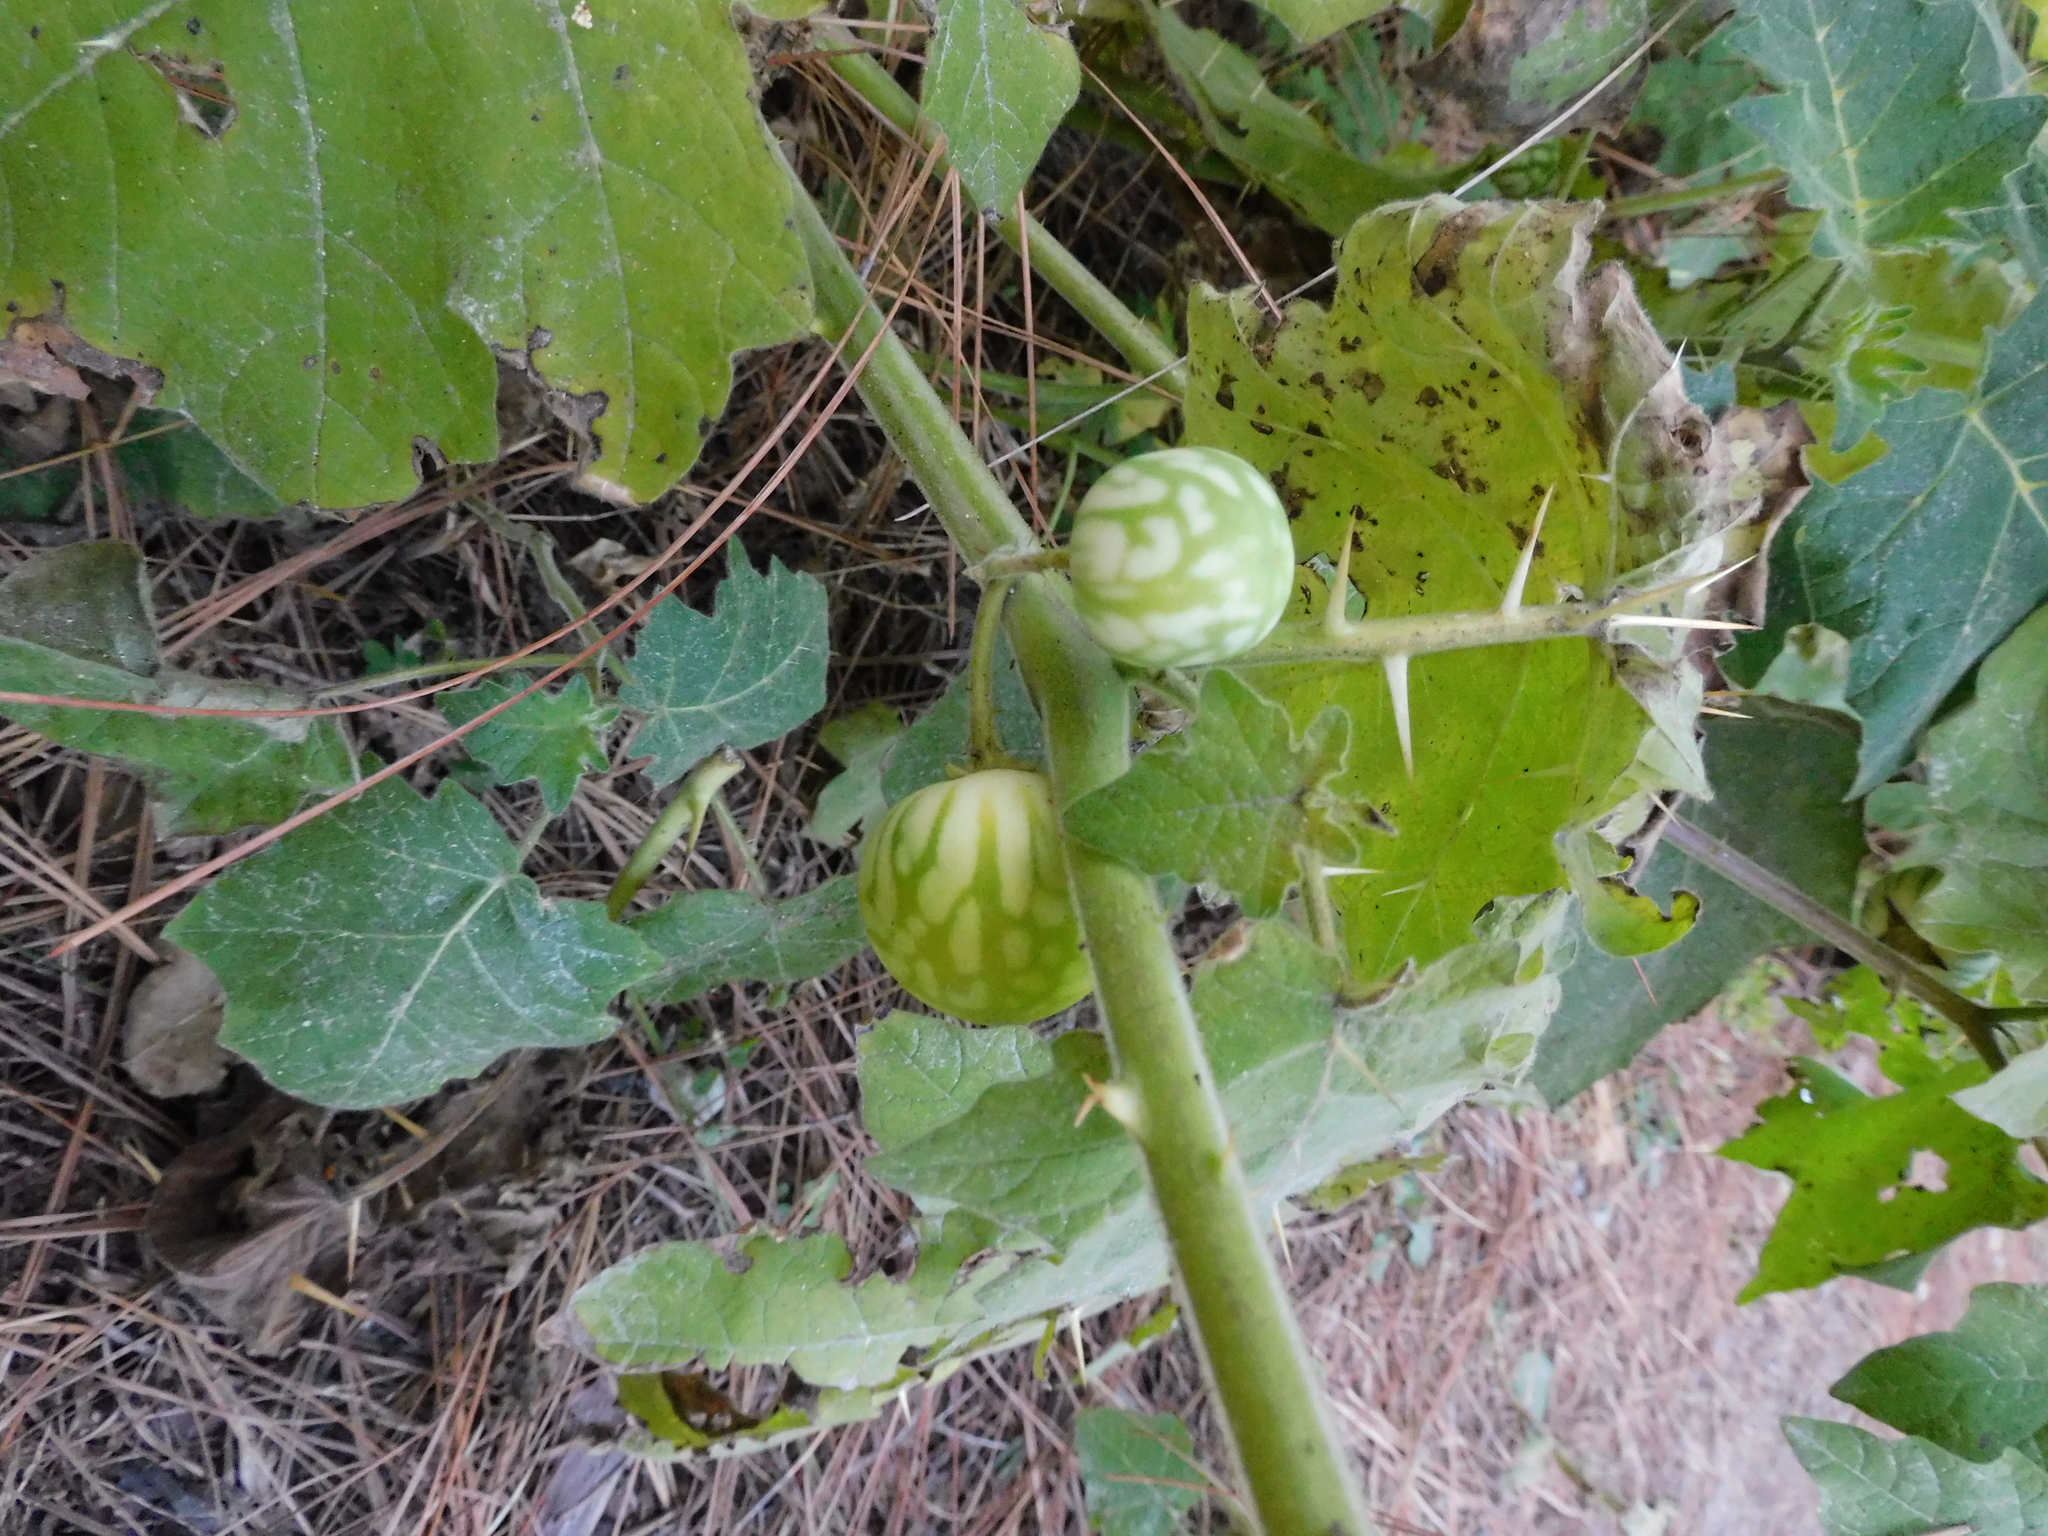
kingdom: Plantae
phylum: Tracheophyta
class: Magnoliopsida
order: Solanales
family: Solanaceae
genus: Solanum
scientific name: Solanum viarum
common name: Tropical soda apple
